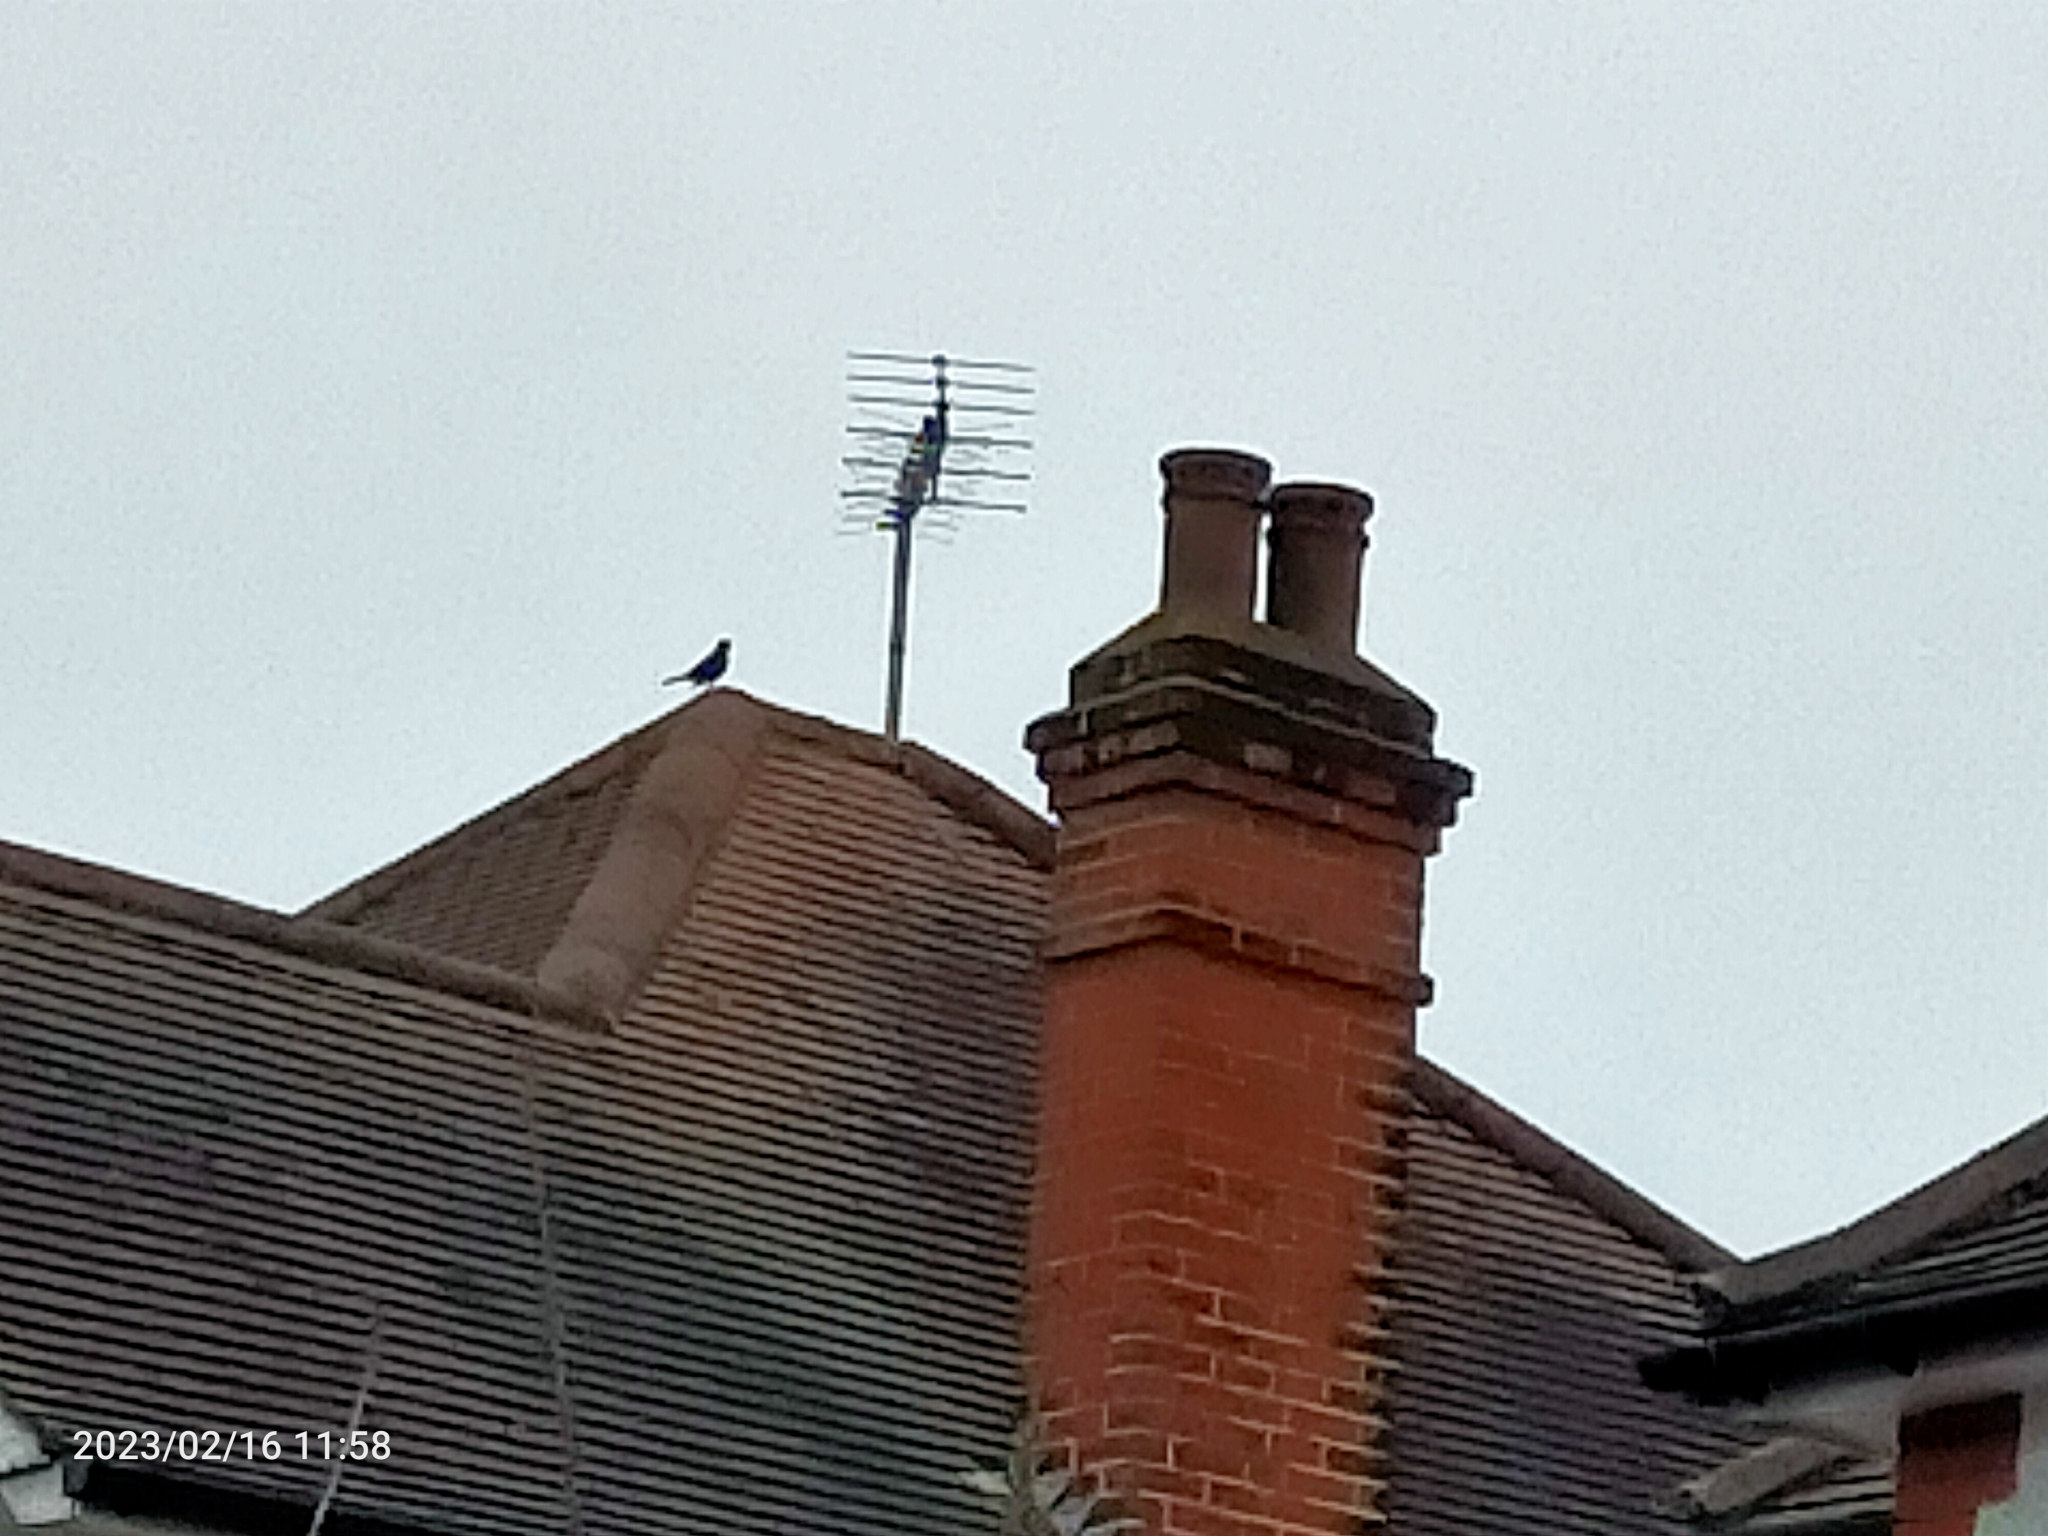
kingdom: Animalia
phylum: Chordata
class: Aves
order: Passeriformes
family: Turdidae
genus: Turdus
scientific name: Turdus merula
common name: Common blackbird
